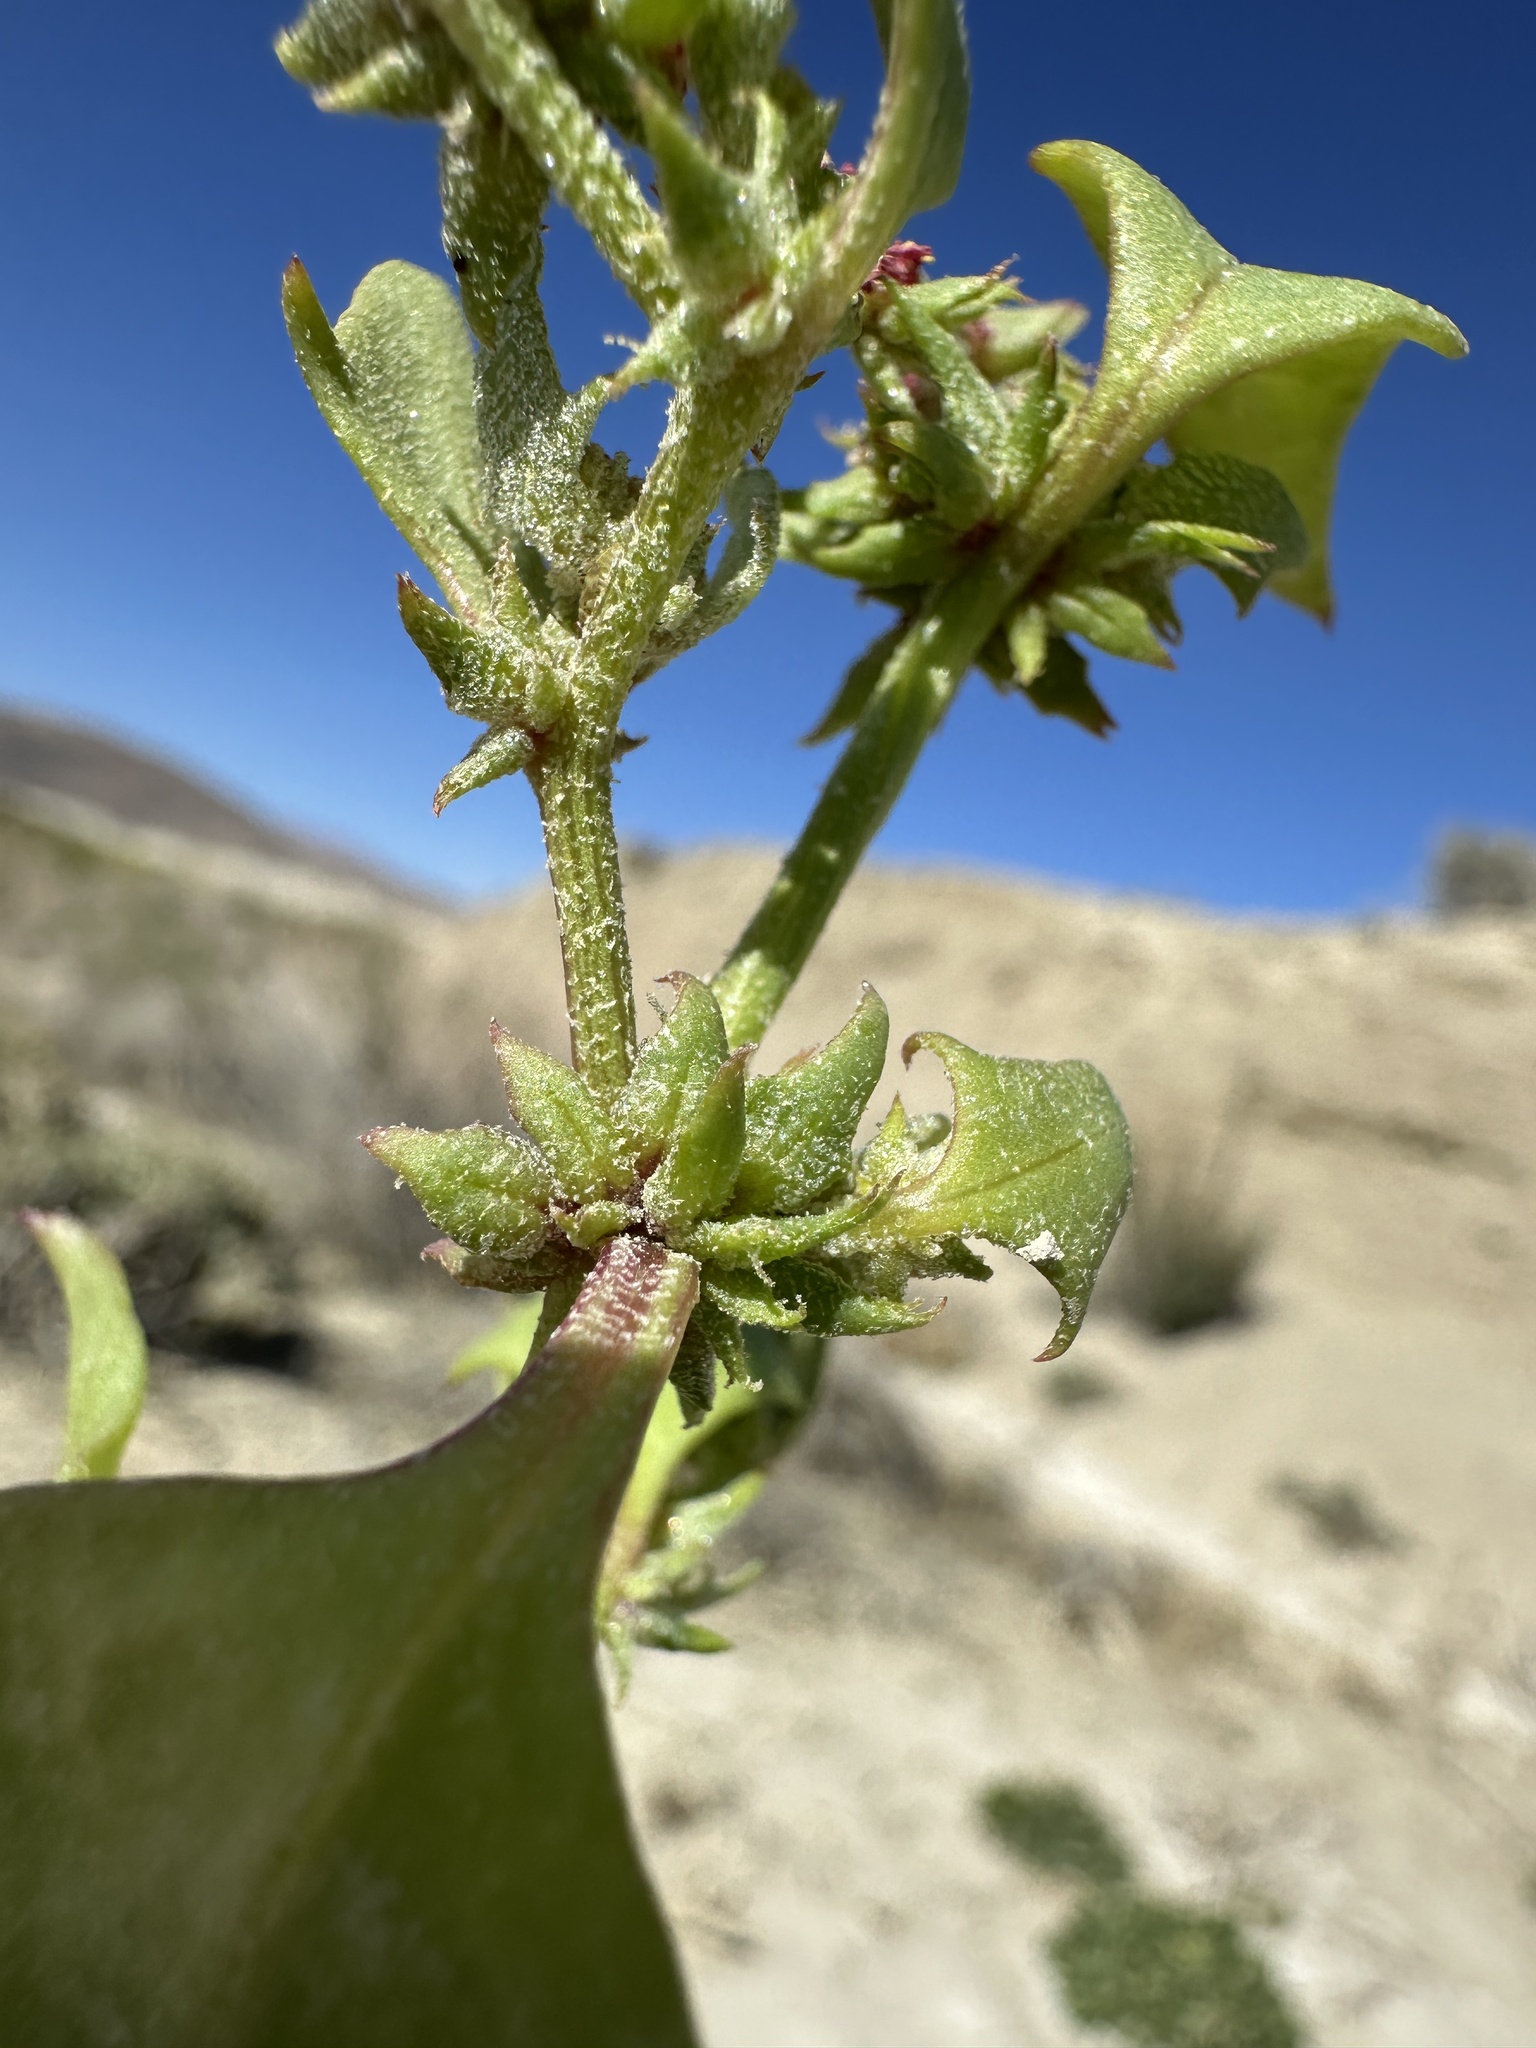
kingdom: Plantae
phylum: Tracheophyta
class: Magnoliopsida
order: Caryophyllales
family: Amaranthaceae
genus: Stutzia
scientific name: Stutzia covillei
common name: Coville's orach
